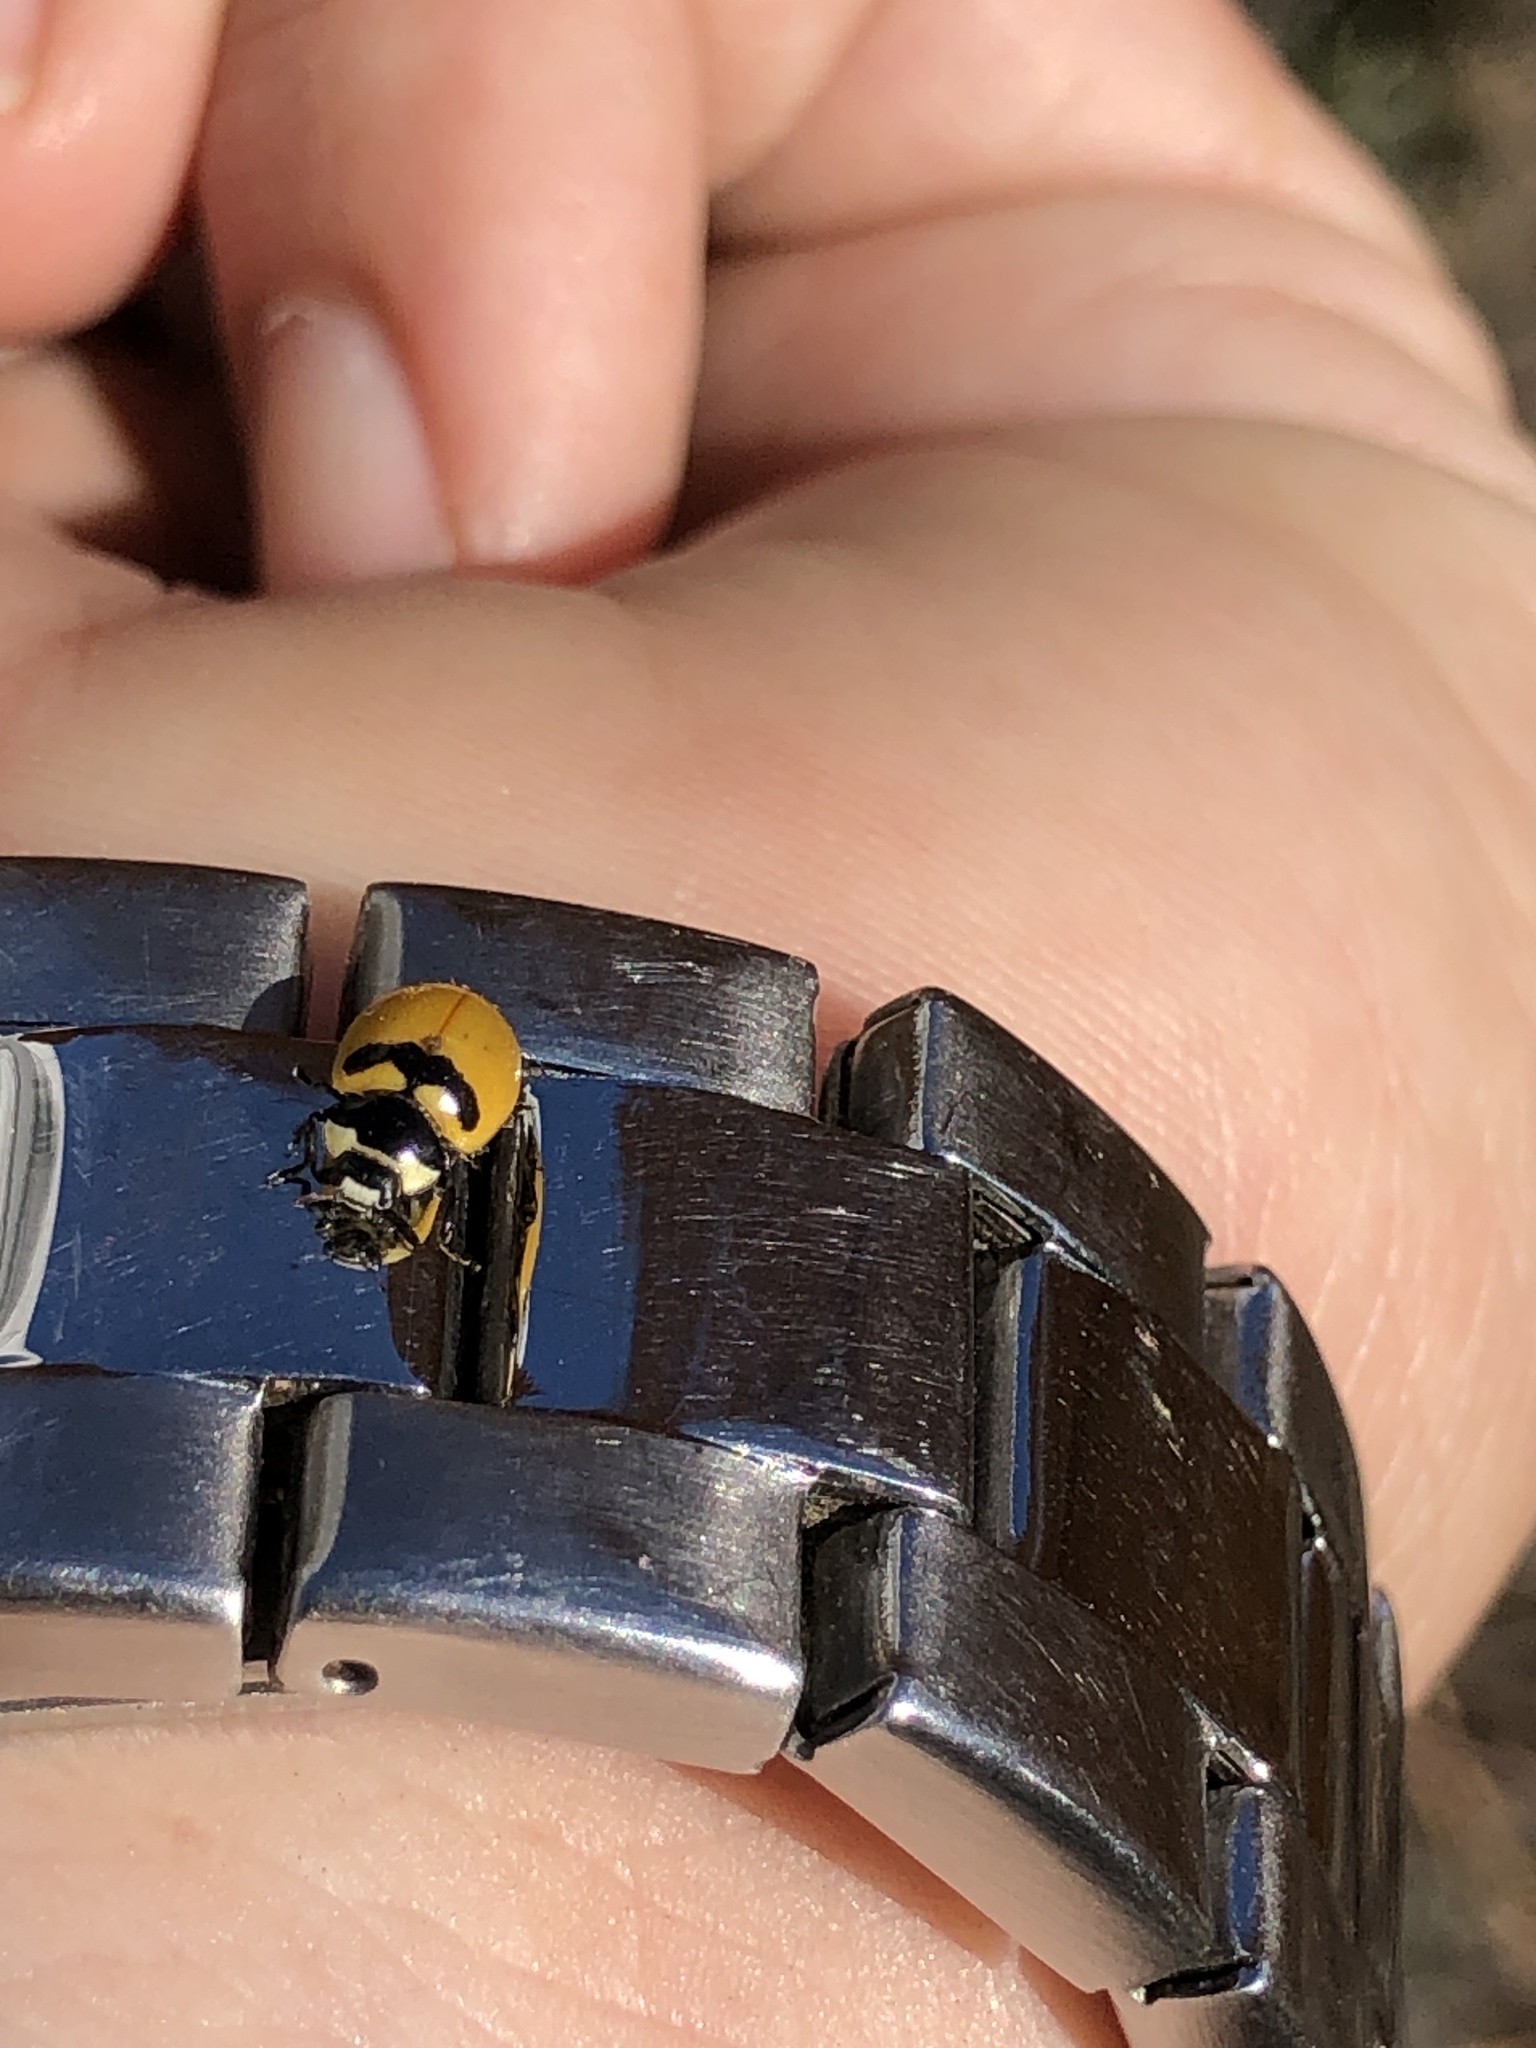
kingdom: Animalia
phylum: Arthropoda
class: Insecta
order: Coleoptera
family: Coccinellidae
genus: Coccinella
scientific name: Coccinella trifasciata
